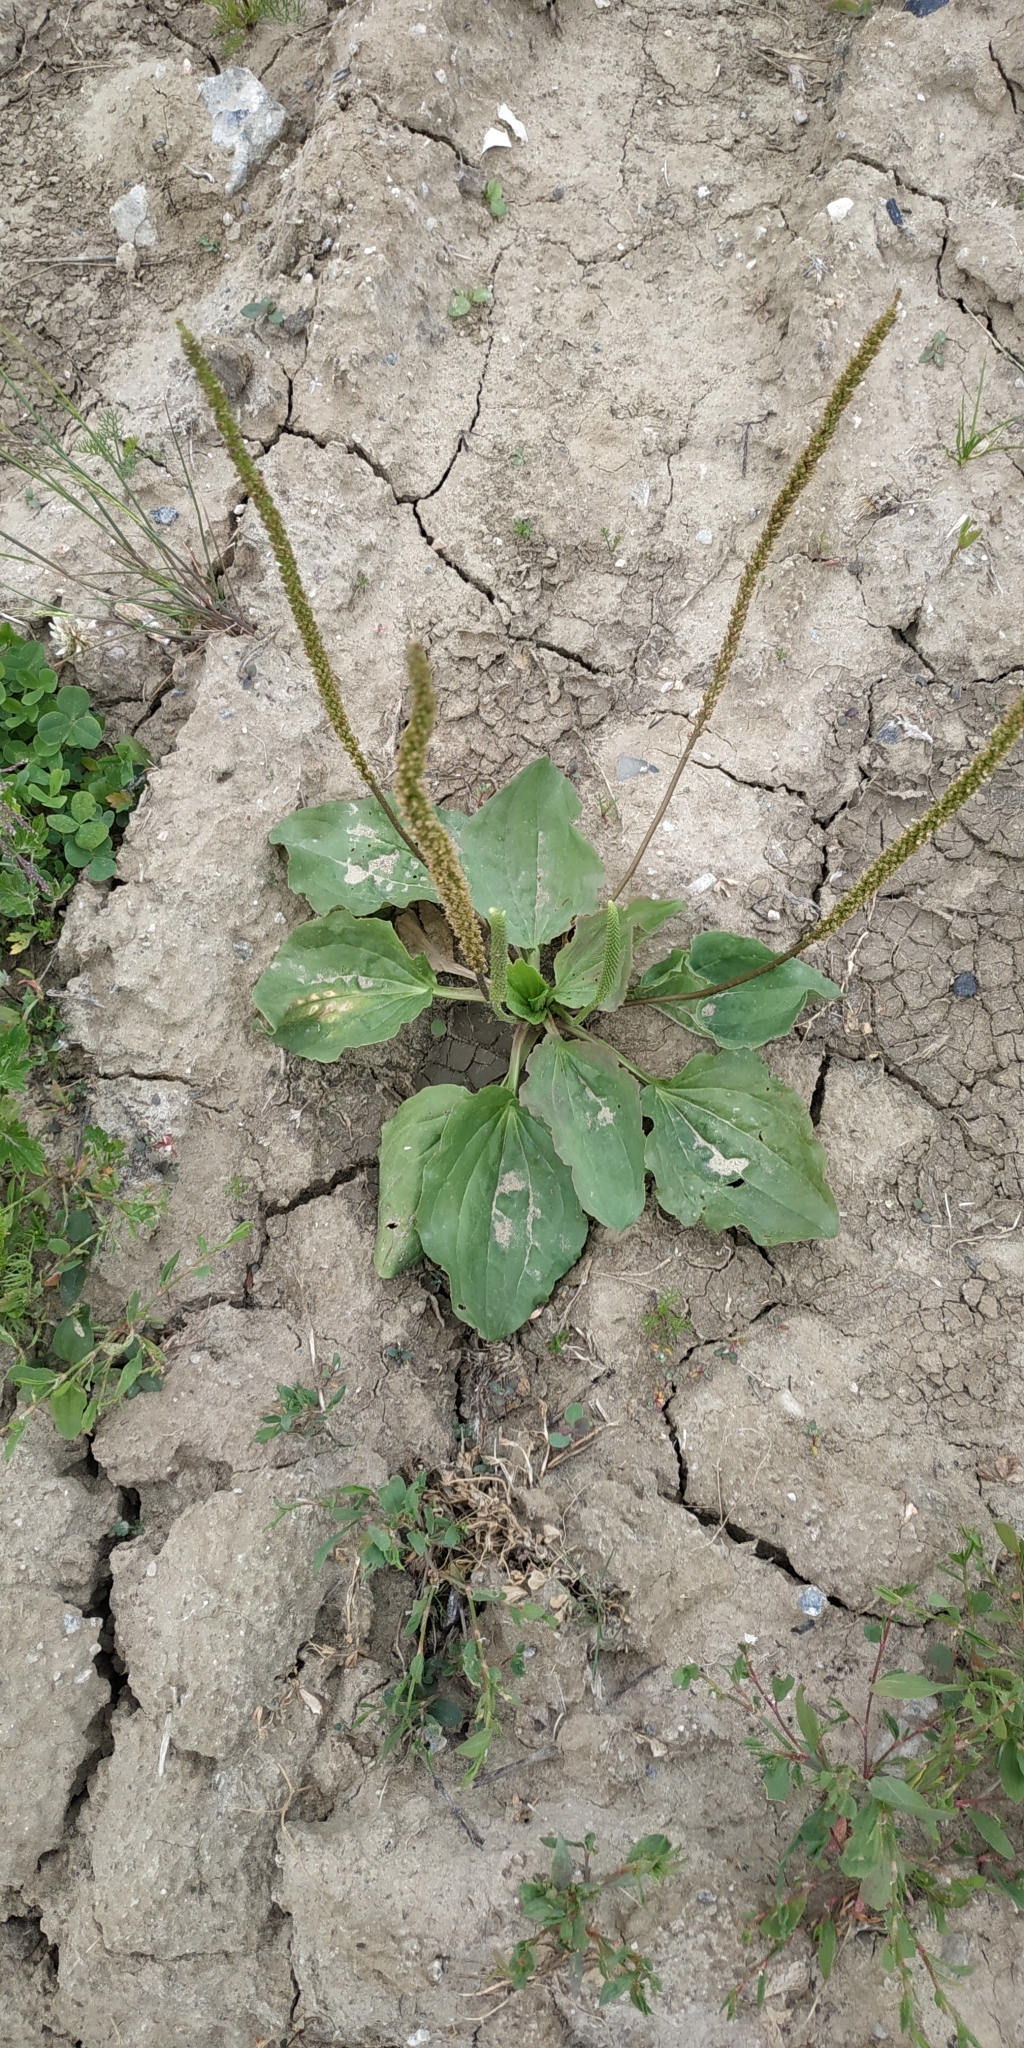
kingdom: Plantae
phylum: Tracheophyta
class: Magnoliopsida
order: Lamiales
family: Plantaginaceae
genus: Plantago
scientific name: Plantago major
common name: Common plantain
